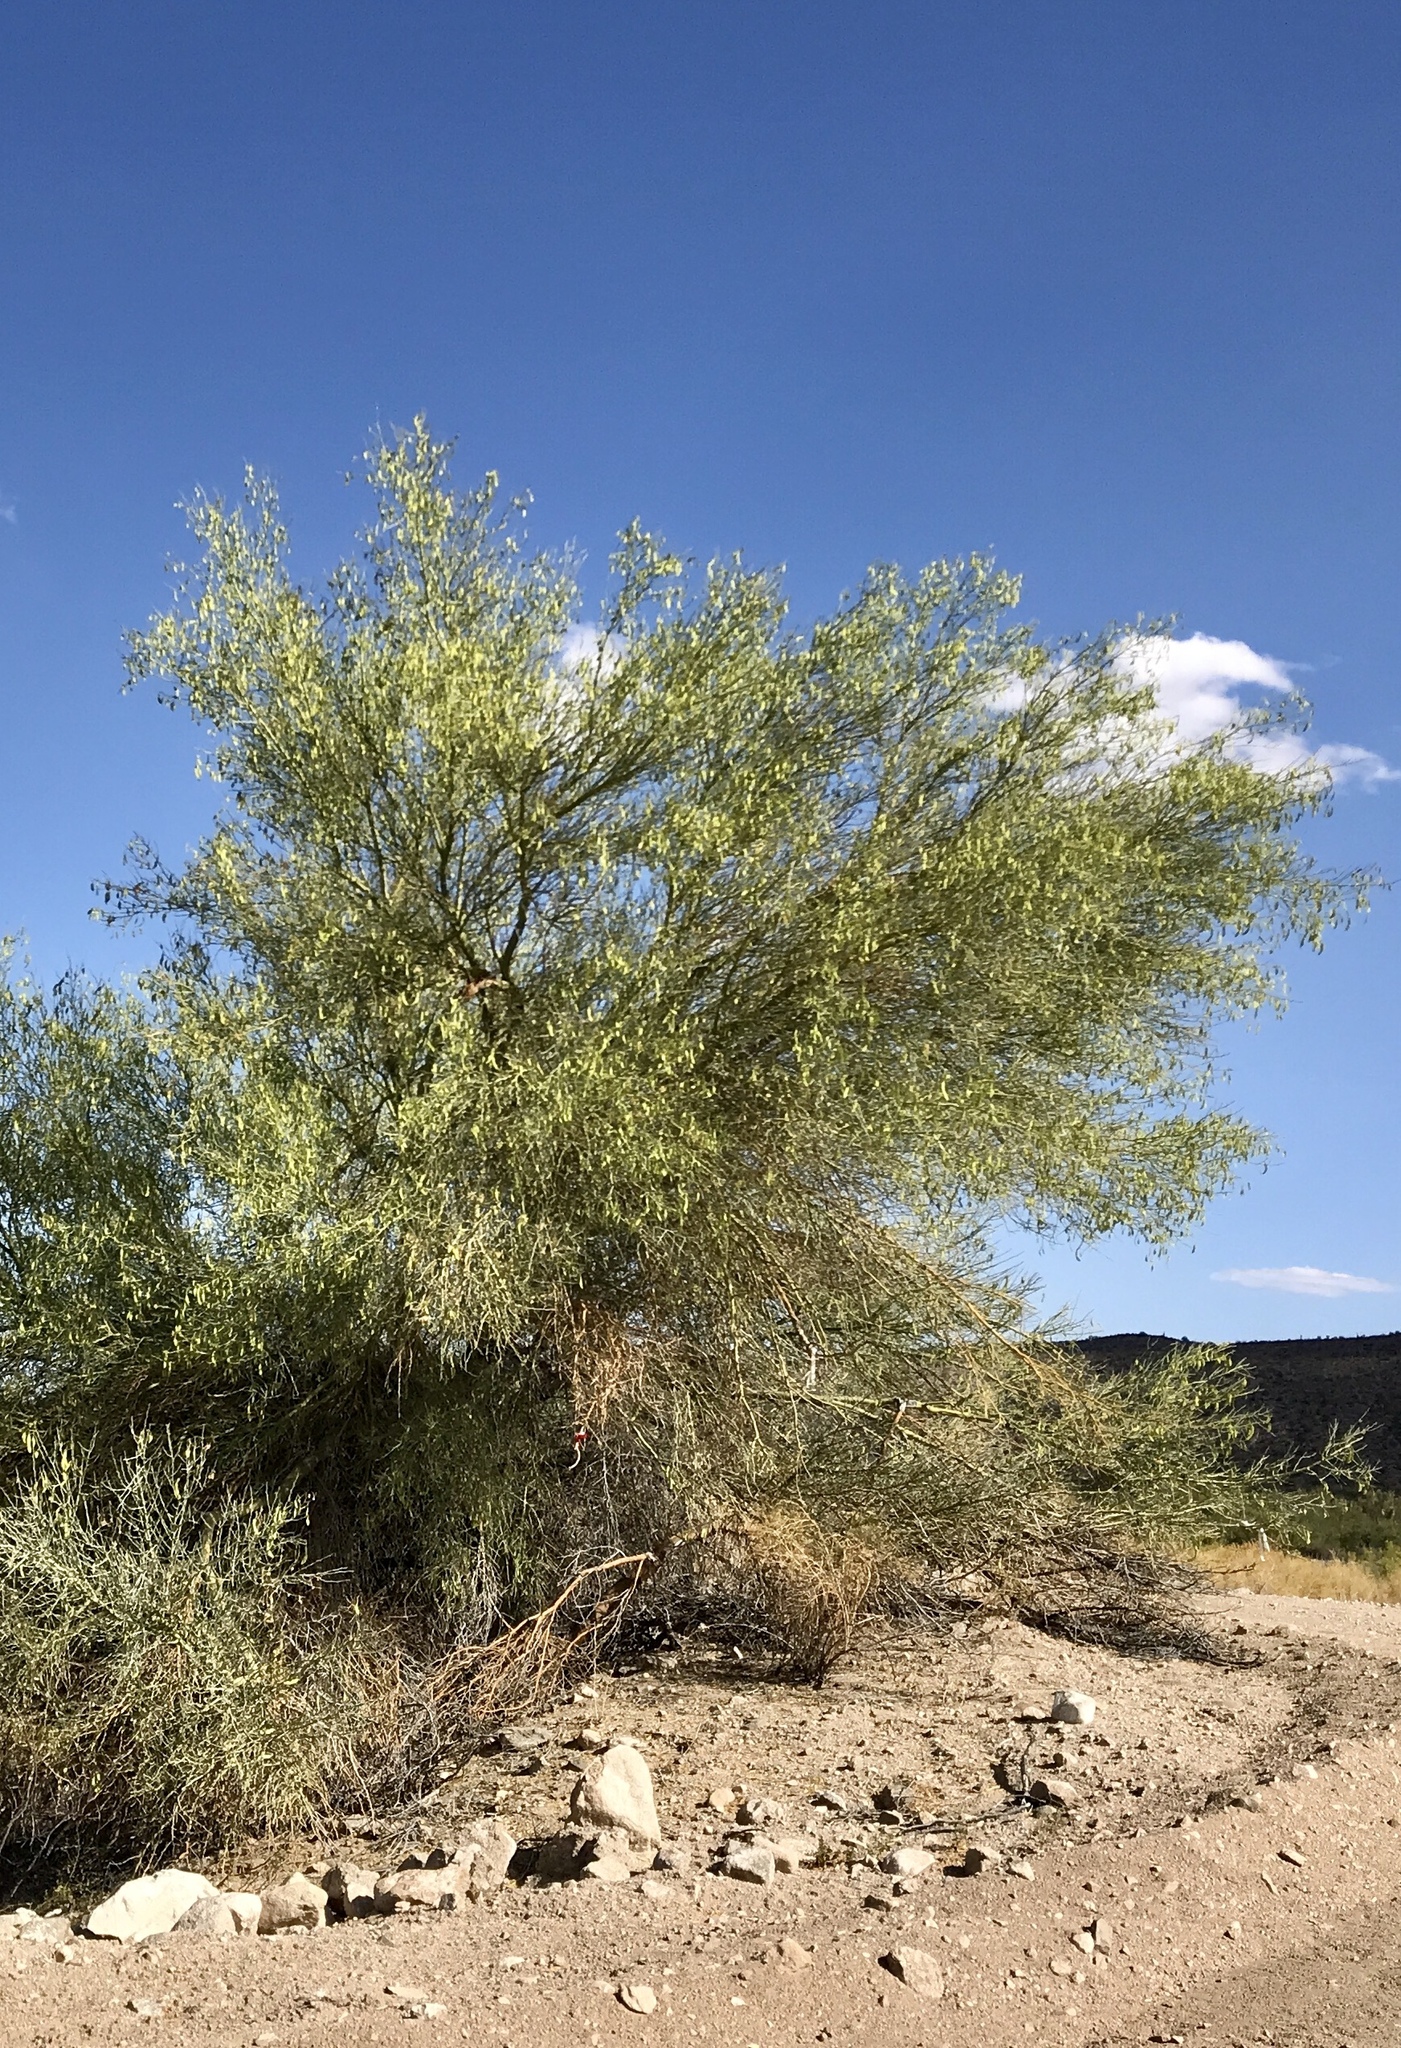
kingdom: Plantae
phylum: Tracheophyta
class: Magnoliopsida
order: Fabales
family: Fabaceae
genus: Parkinsonia
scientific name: Parkinsonia microphylla
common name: Yellow paloverde
